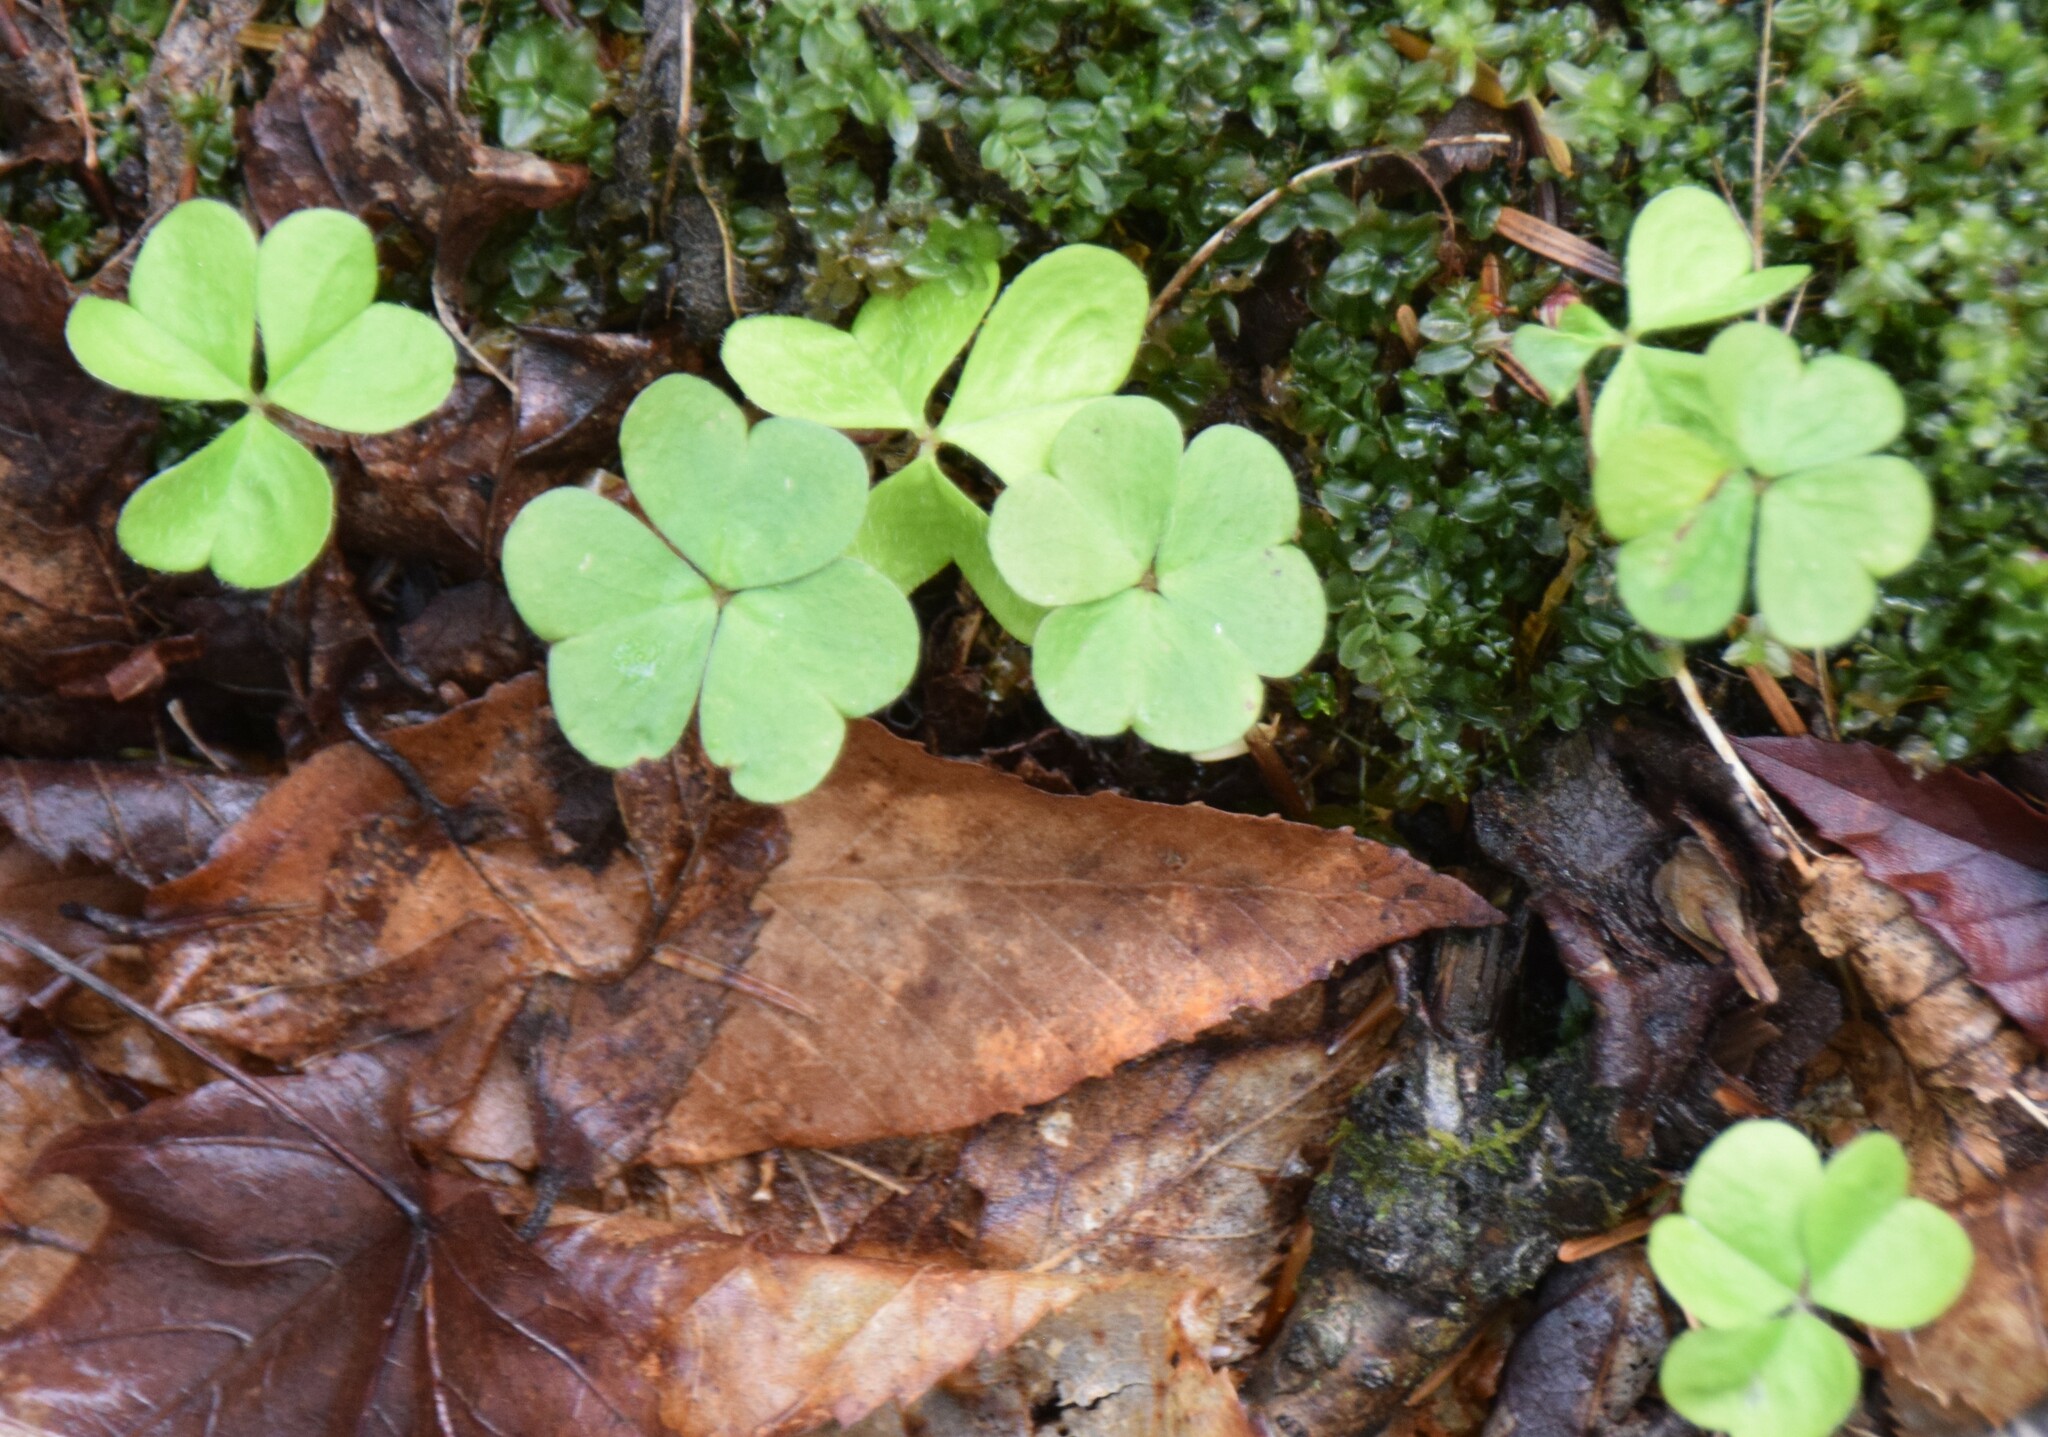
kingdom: Plantae
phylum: Tracheophyta
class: Magnoliopsida
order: Oxalidales
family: Oxalidaceae
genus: Oxalis
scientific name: Oxalis montana
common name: American wood-sorrel
